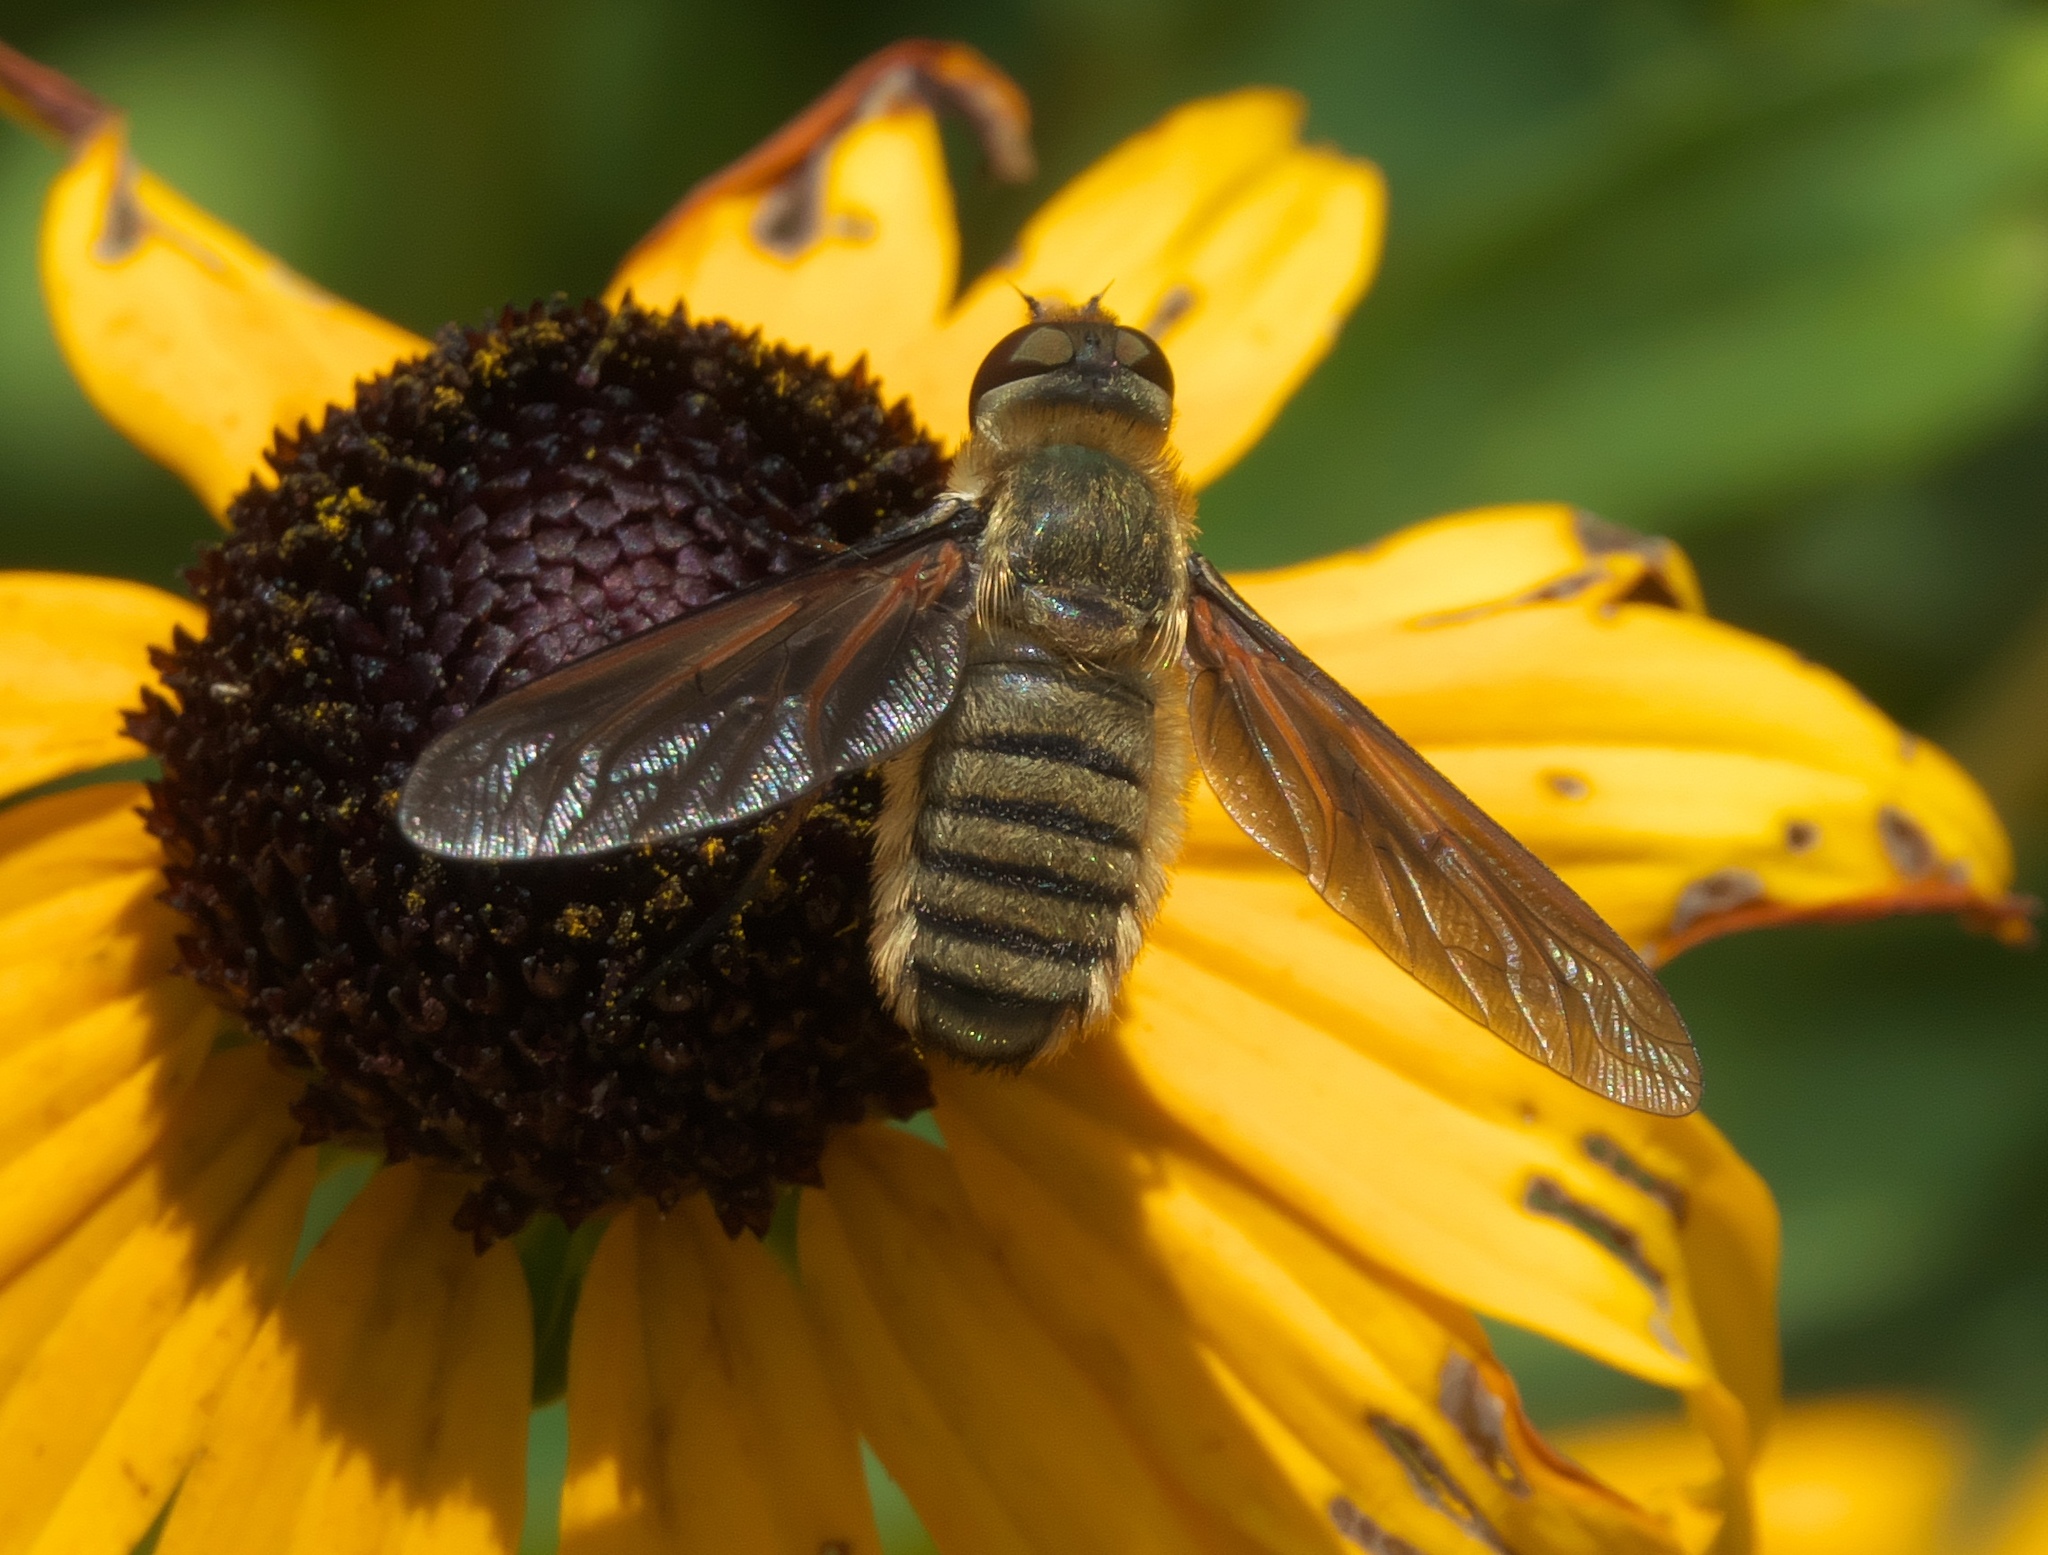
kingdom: Animalia
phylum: Arthropoda
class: Insecta
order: Diptera
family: Bombyliidae
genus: Poecilanthrax
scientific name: Poecilanthrax lucifer
